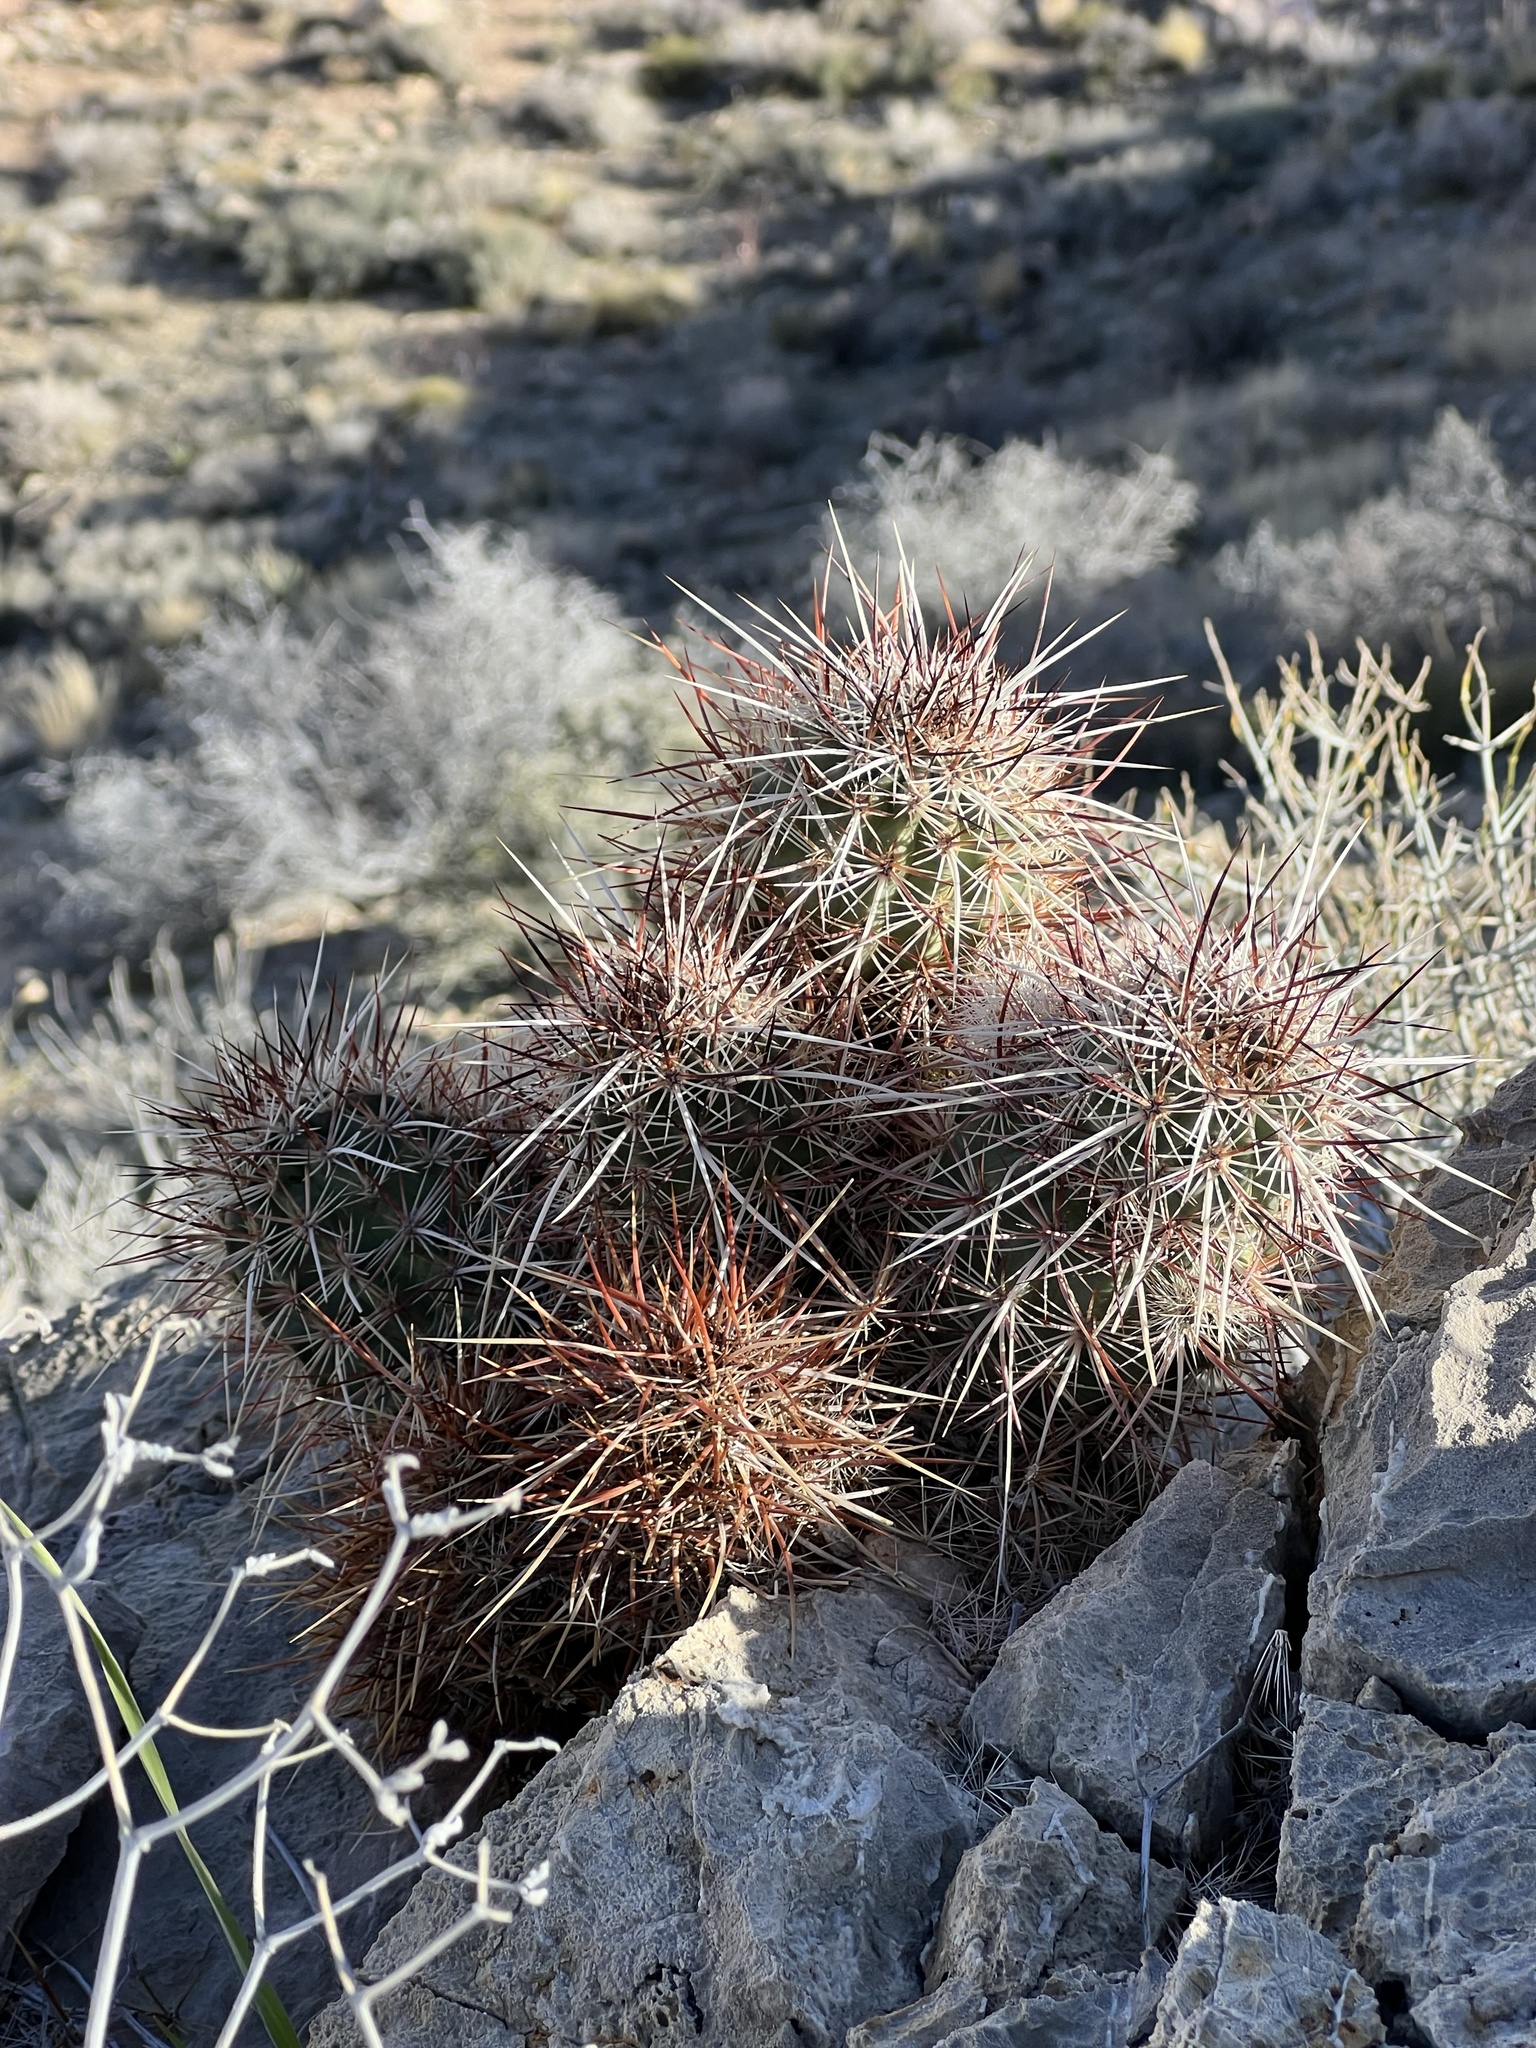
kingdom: Plantae
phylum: Tracheophyta
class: Magnoliopsida
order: Caryophyllales
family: Cactaceae
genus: Echinocereus
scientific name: Echinocereus engelmannii
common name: Engelmann's hedgehog cactus
